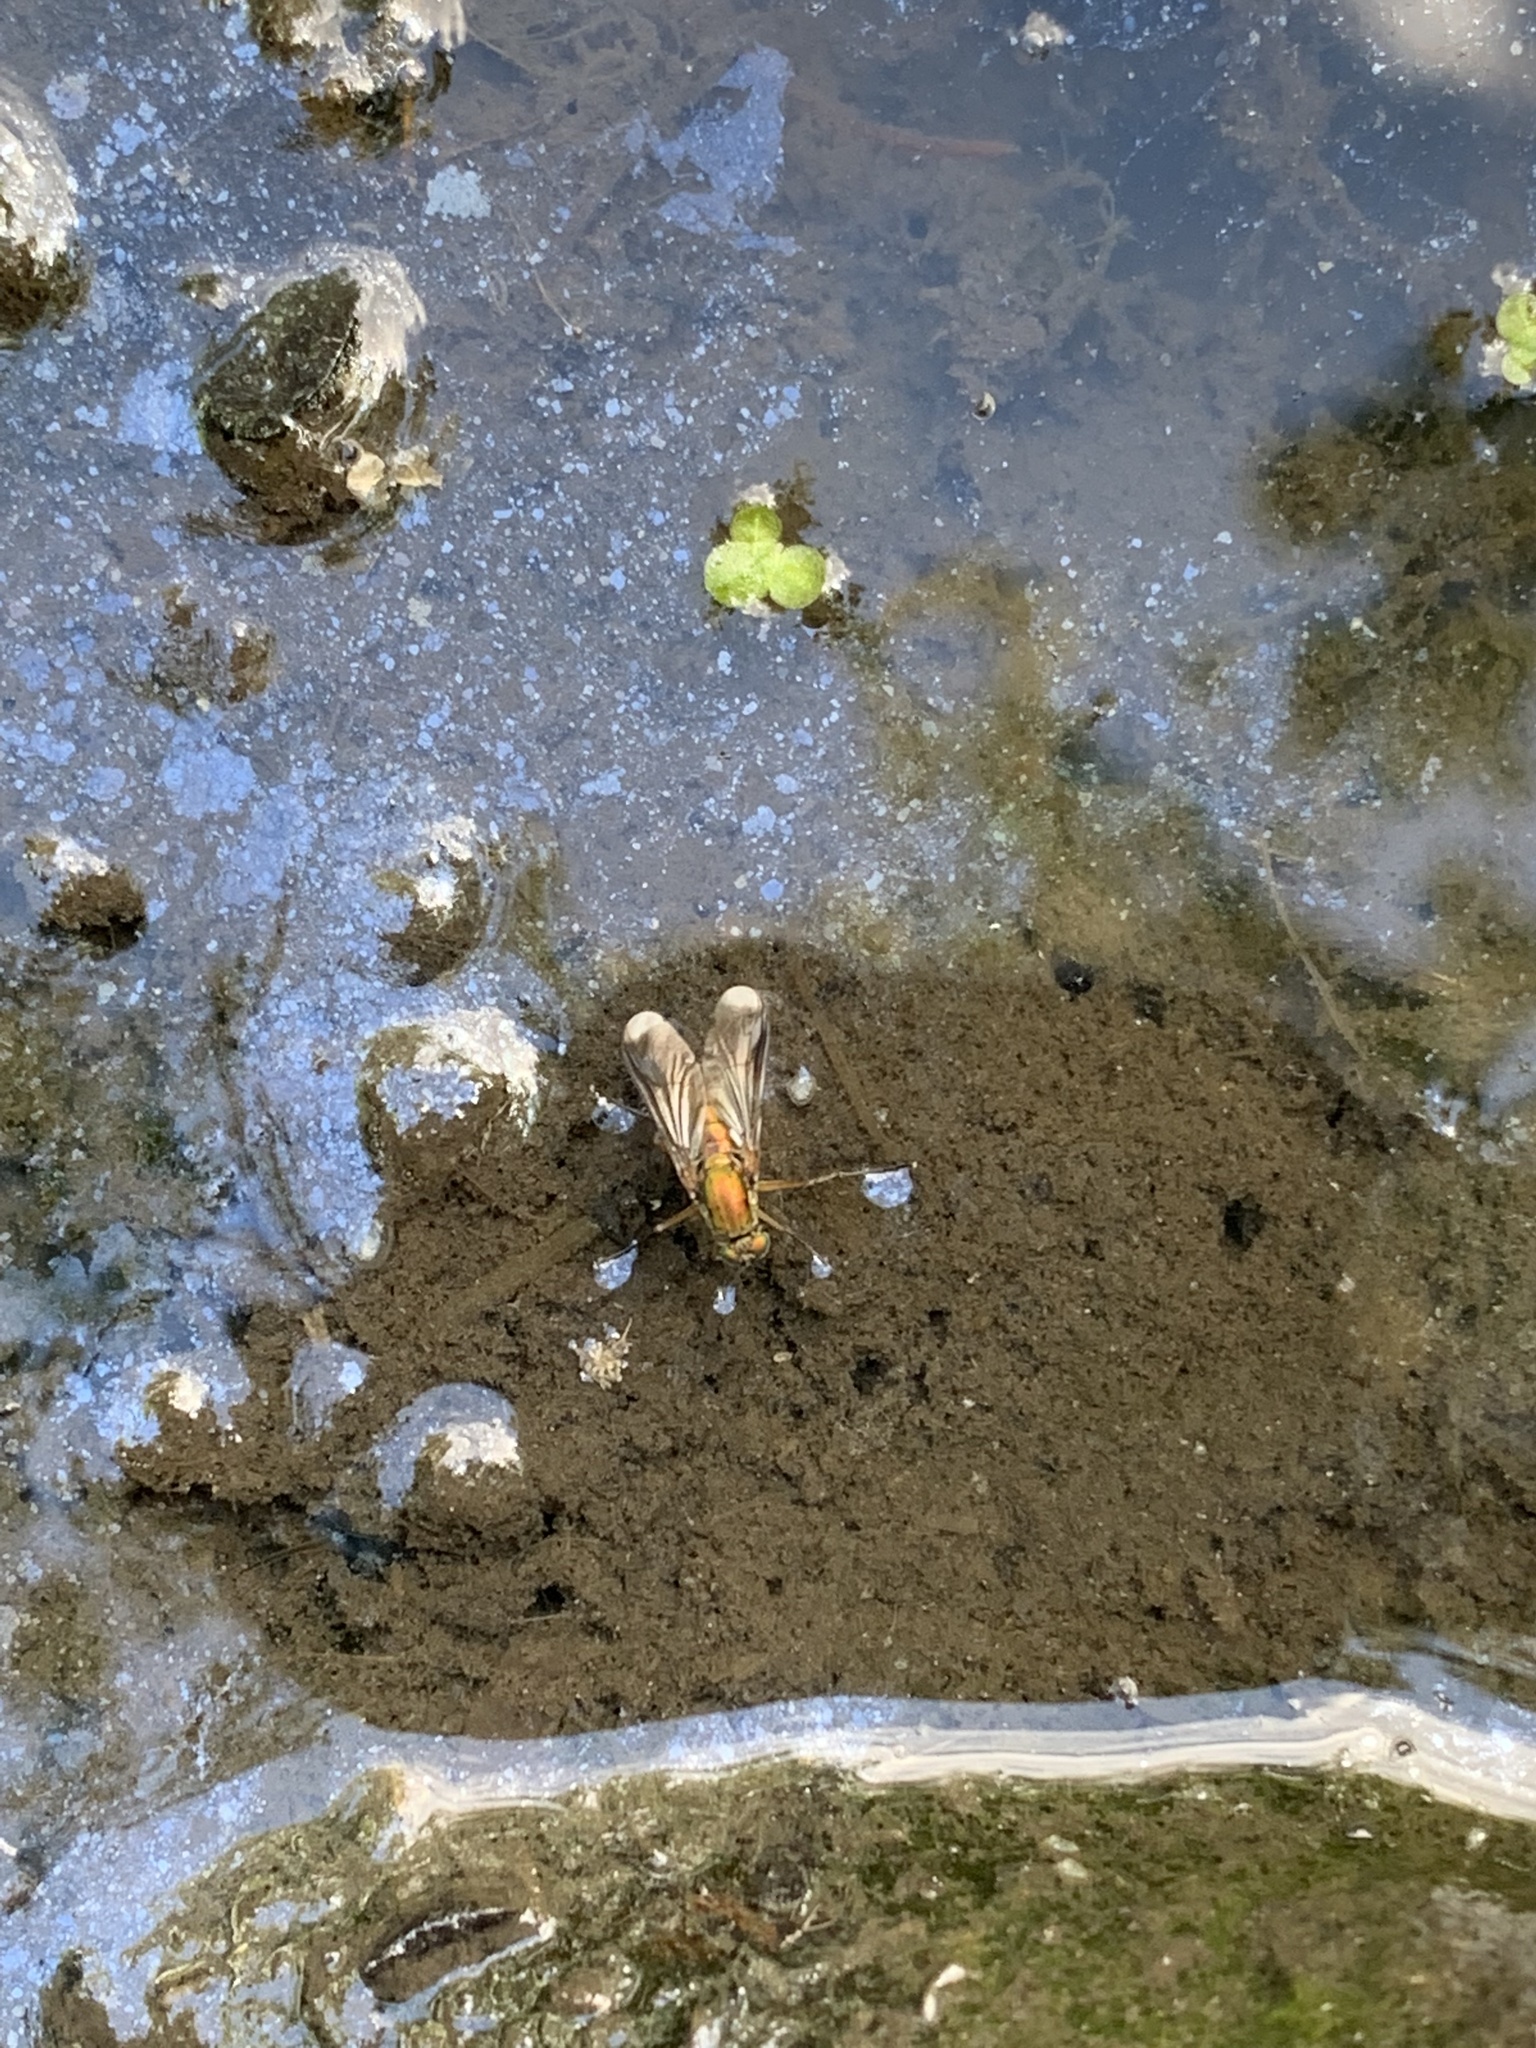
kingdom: Animalia
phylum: Arthropoda
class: Insecta
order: Diptera
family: Dolichopodidae
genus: Poecilobothrus
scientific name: Poecilobothrus nobilitatus
